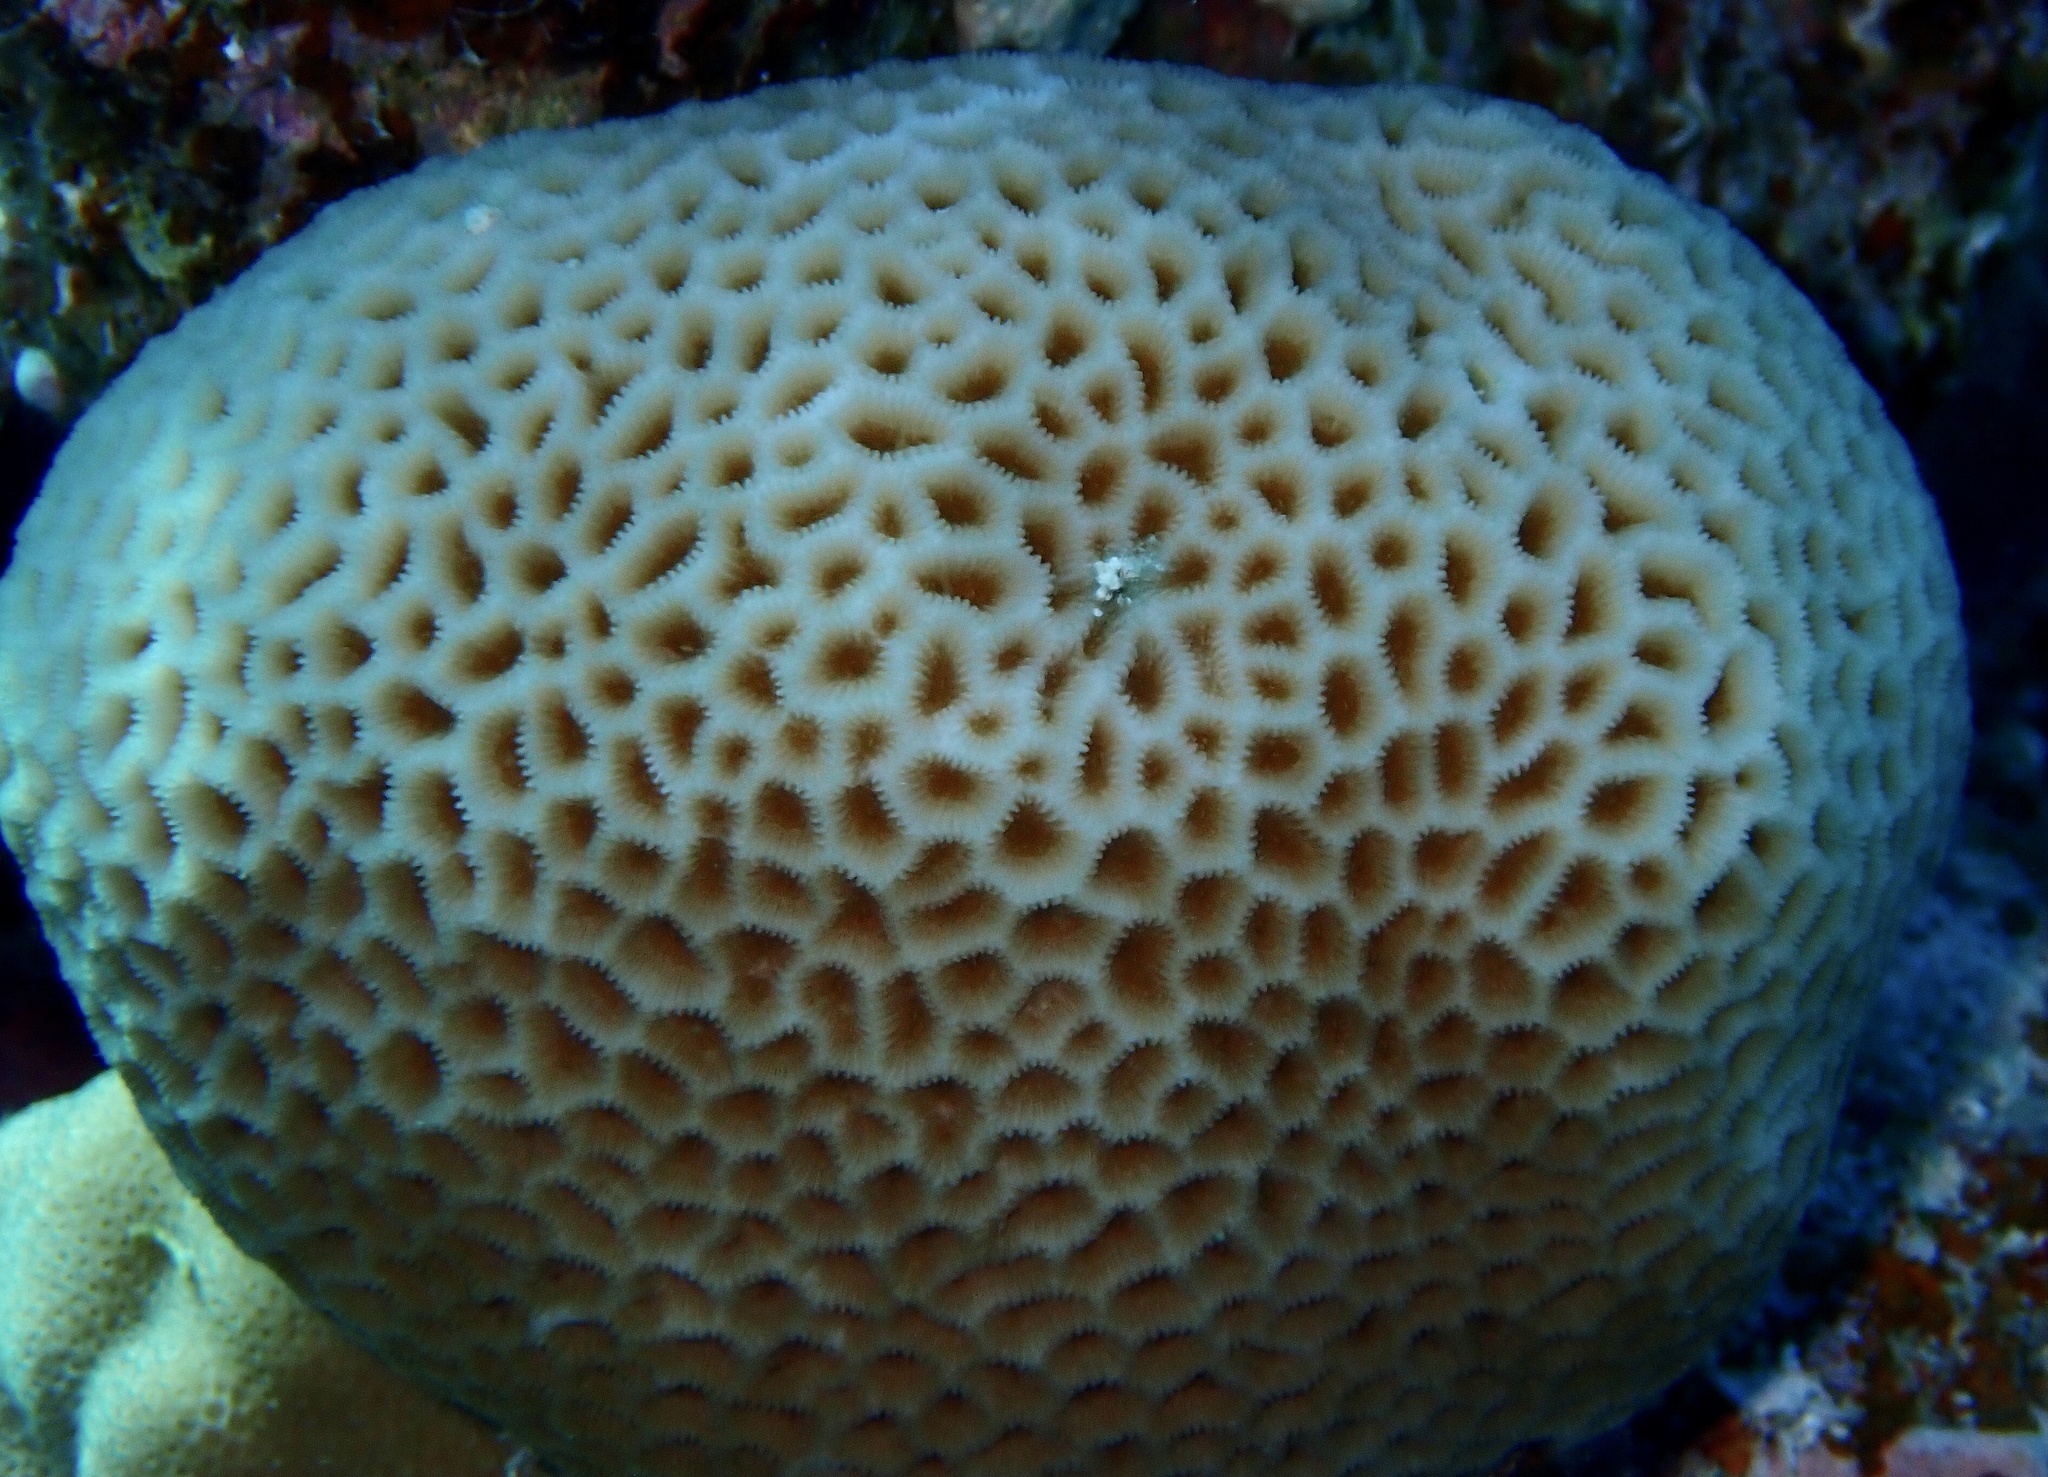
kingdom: Animalia
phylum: Cnidaria
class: Anthozoa
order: Scleractinia
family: Merulinidae
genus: Goniastrea
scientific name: Goniastrea pectinata
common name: Lesser star coral
